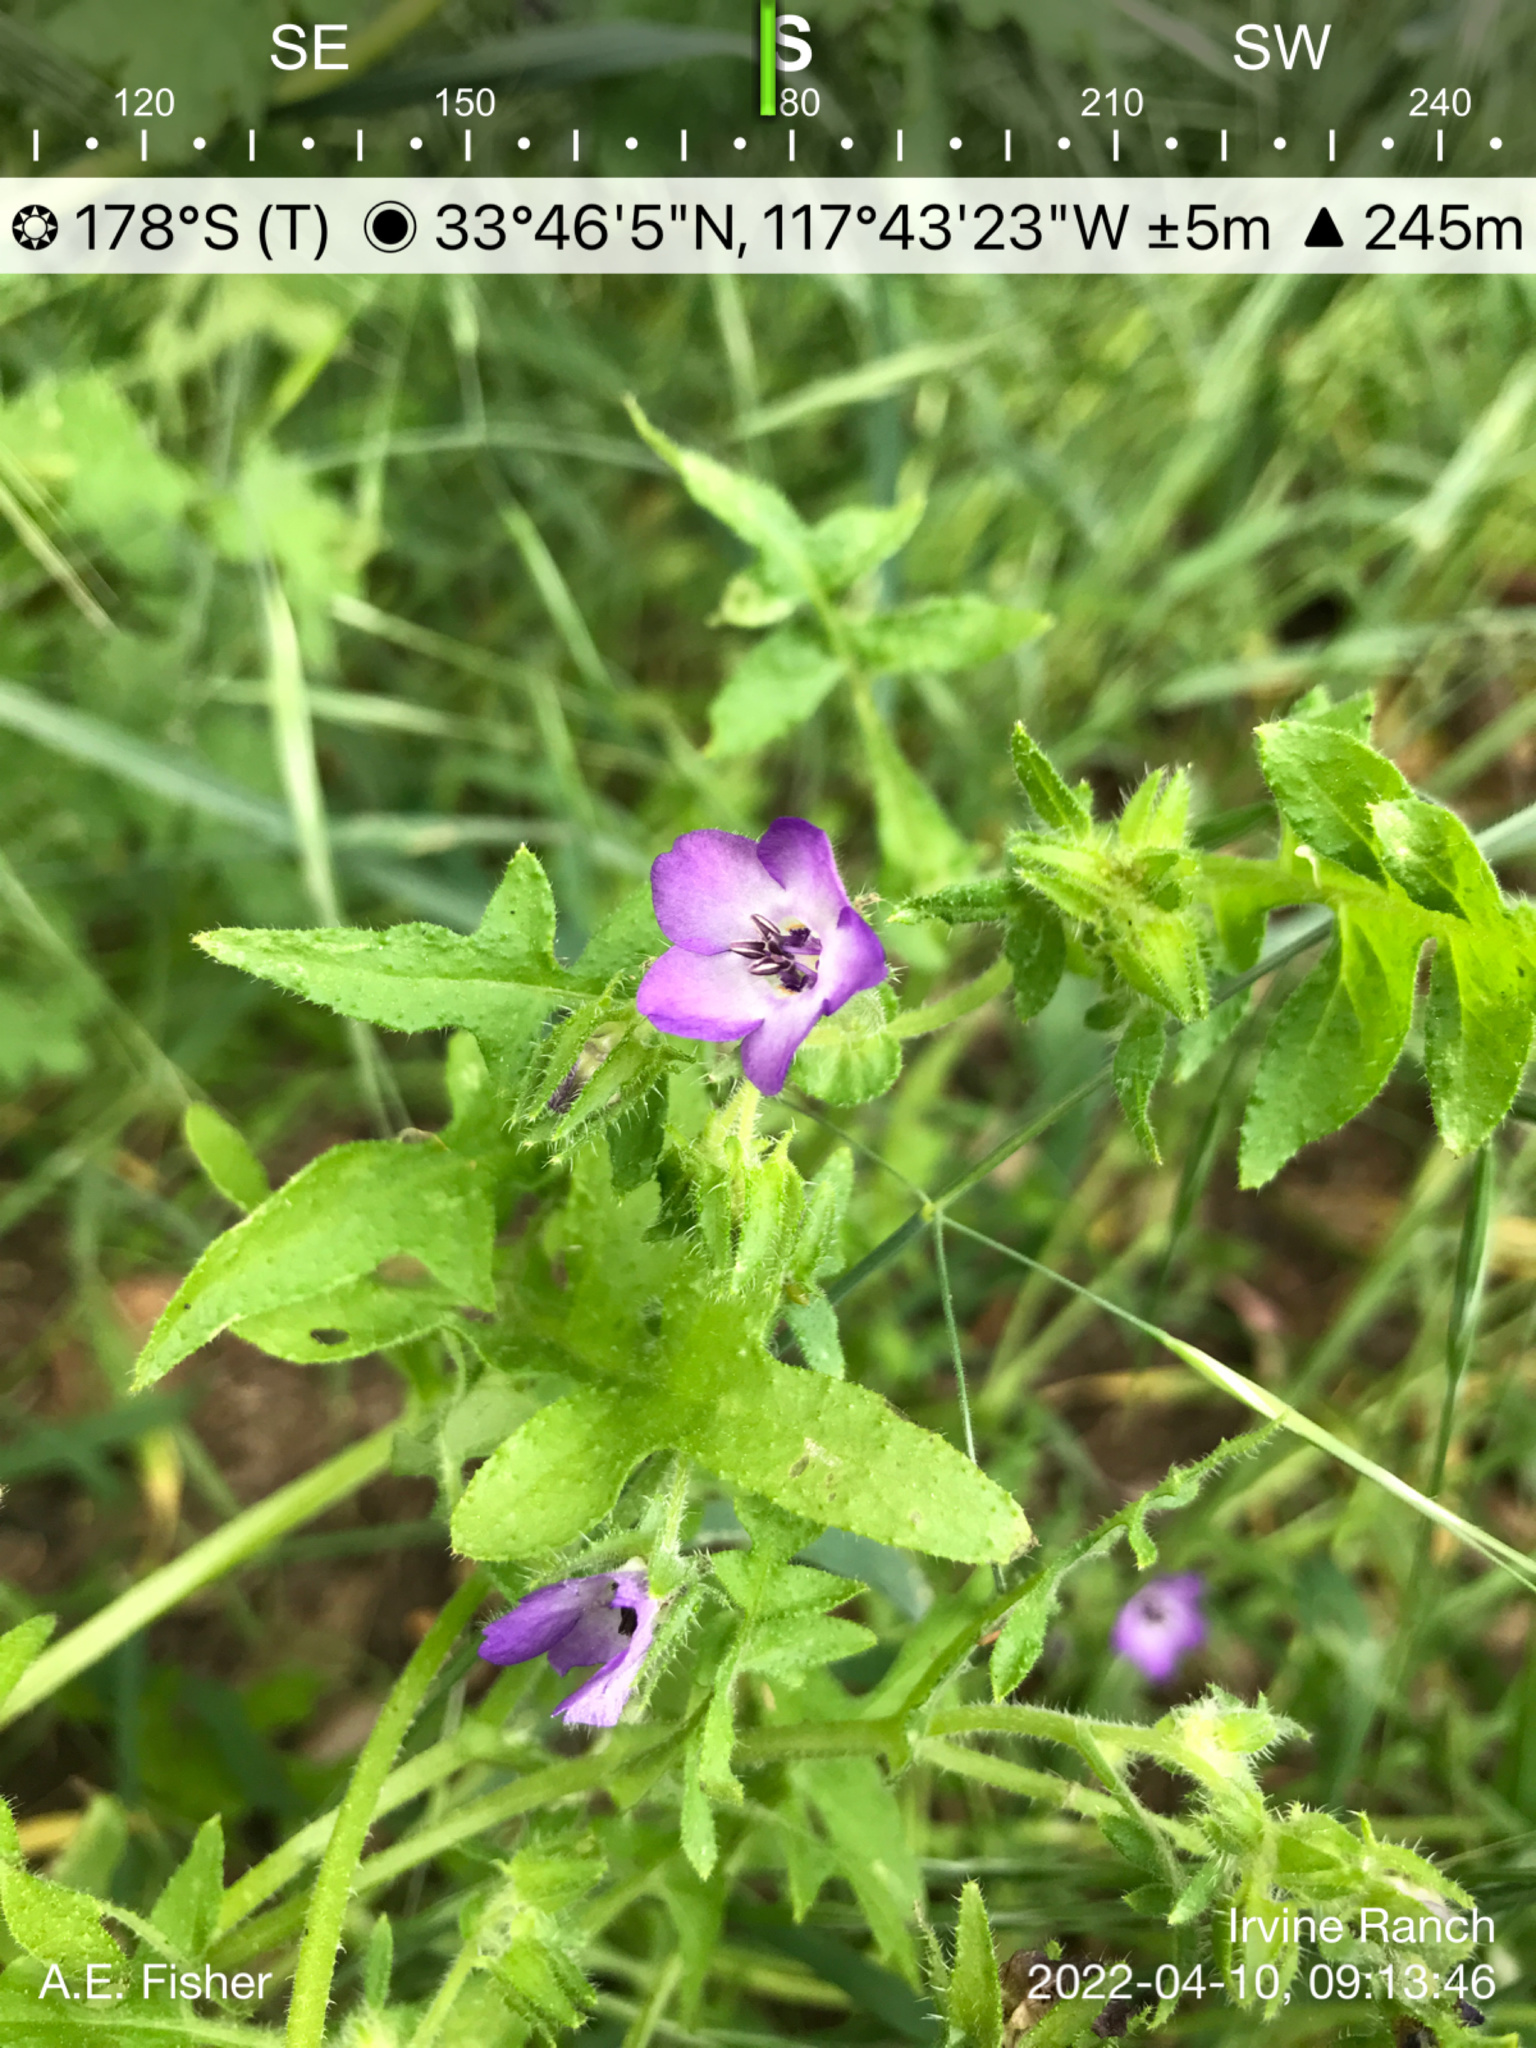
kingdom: Plantae
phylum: Tracheophyta
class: Magnoliopsida
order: Boraginales
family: Hydrophyllaceae
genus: Pholistoma
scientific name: Pholistoma auritum
